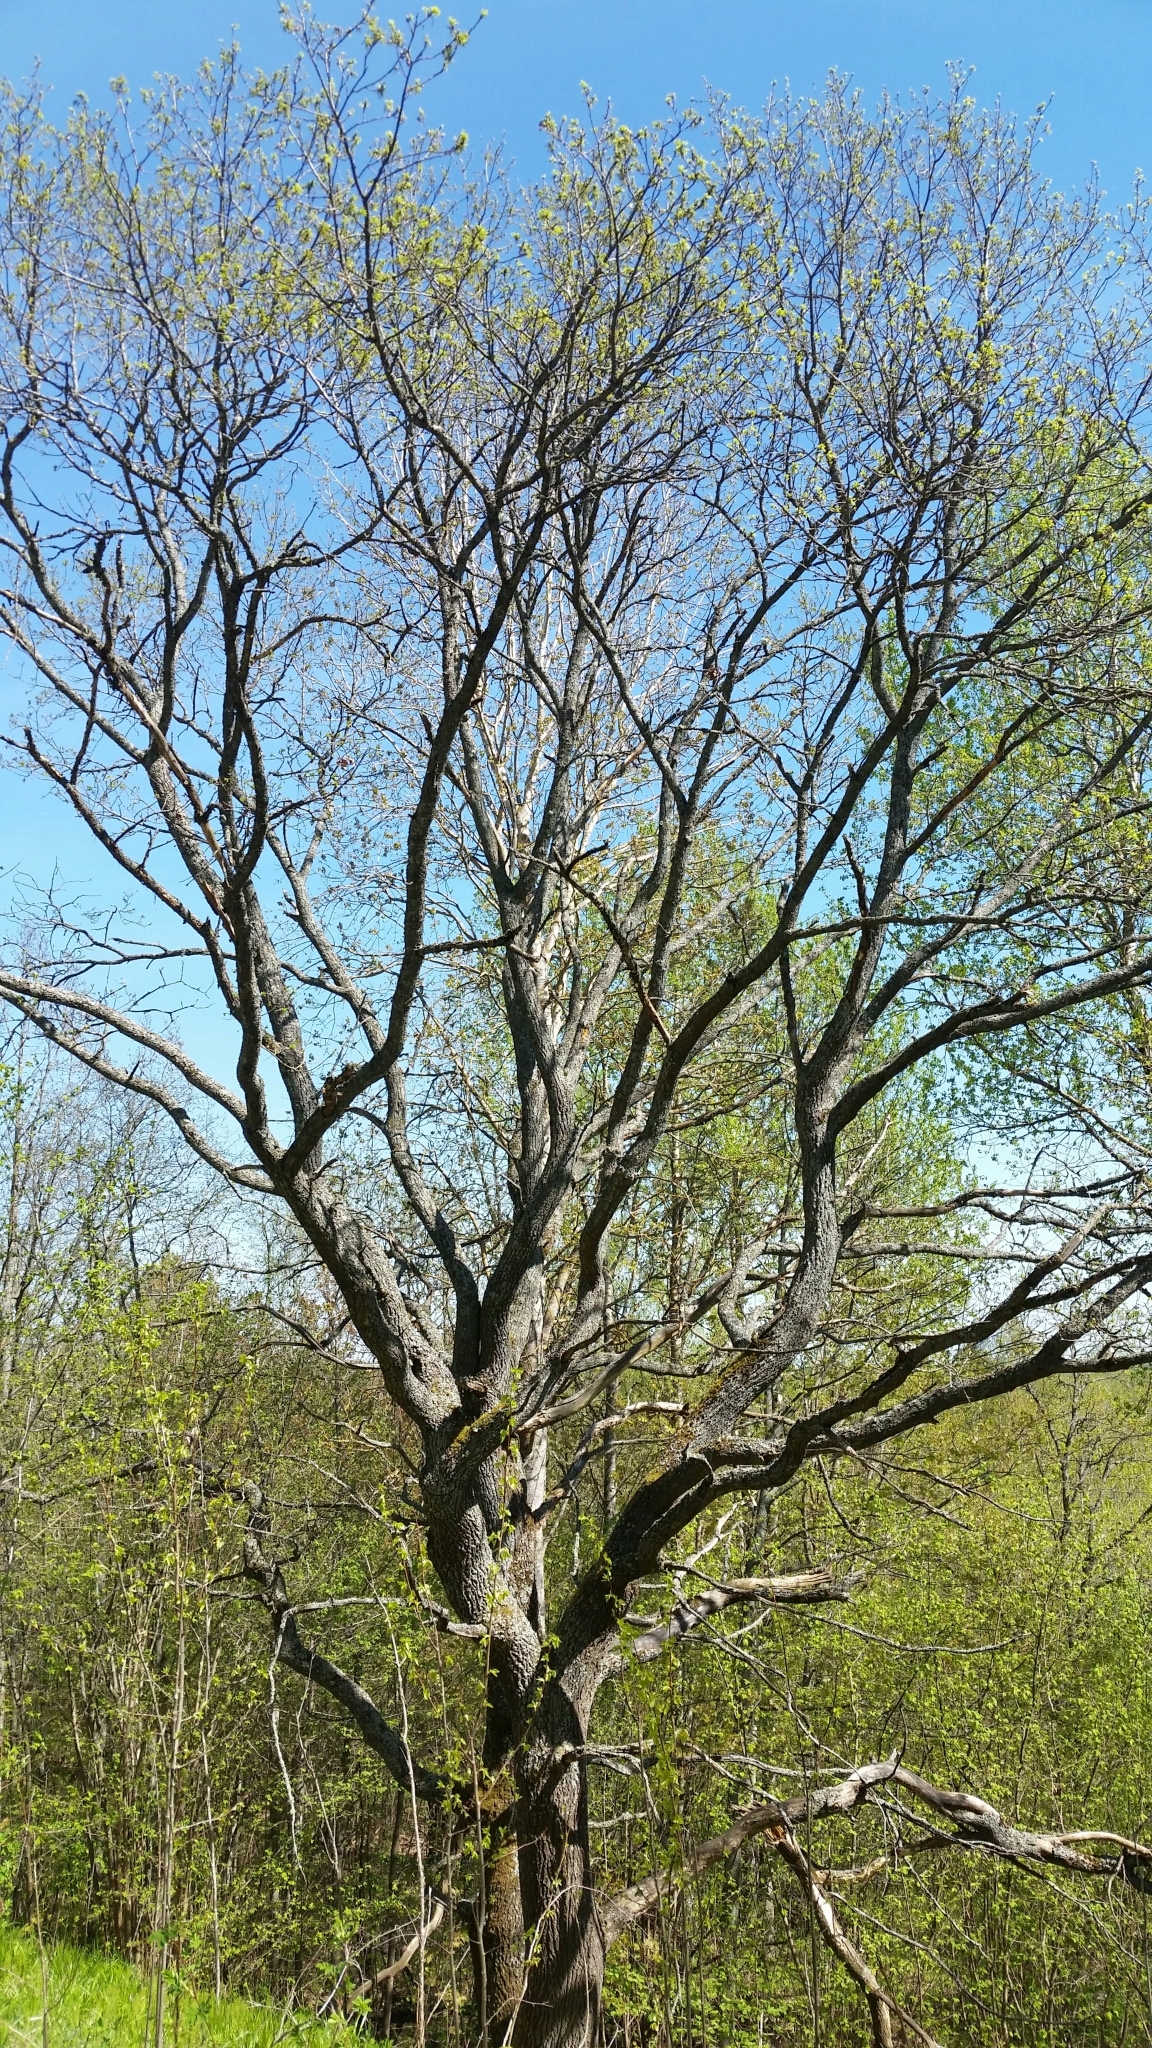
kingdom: Plantae
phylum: Tracheophyta
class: Magnoliopsida
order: Fagales
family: Fagaceae
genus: Quercus
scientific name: Quercus robur
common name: Pedunculate oak
